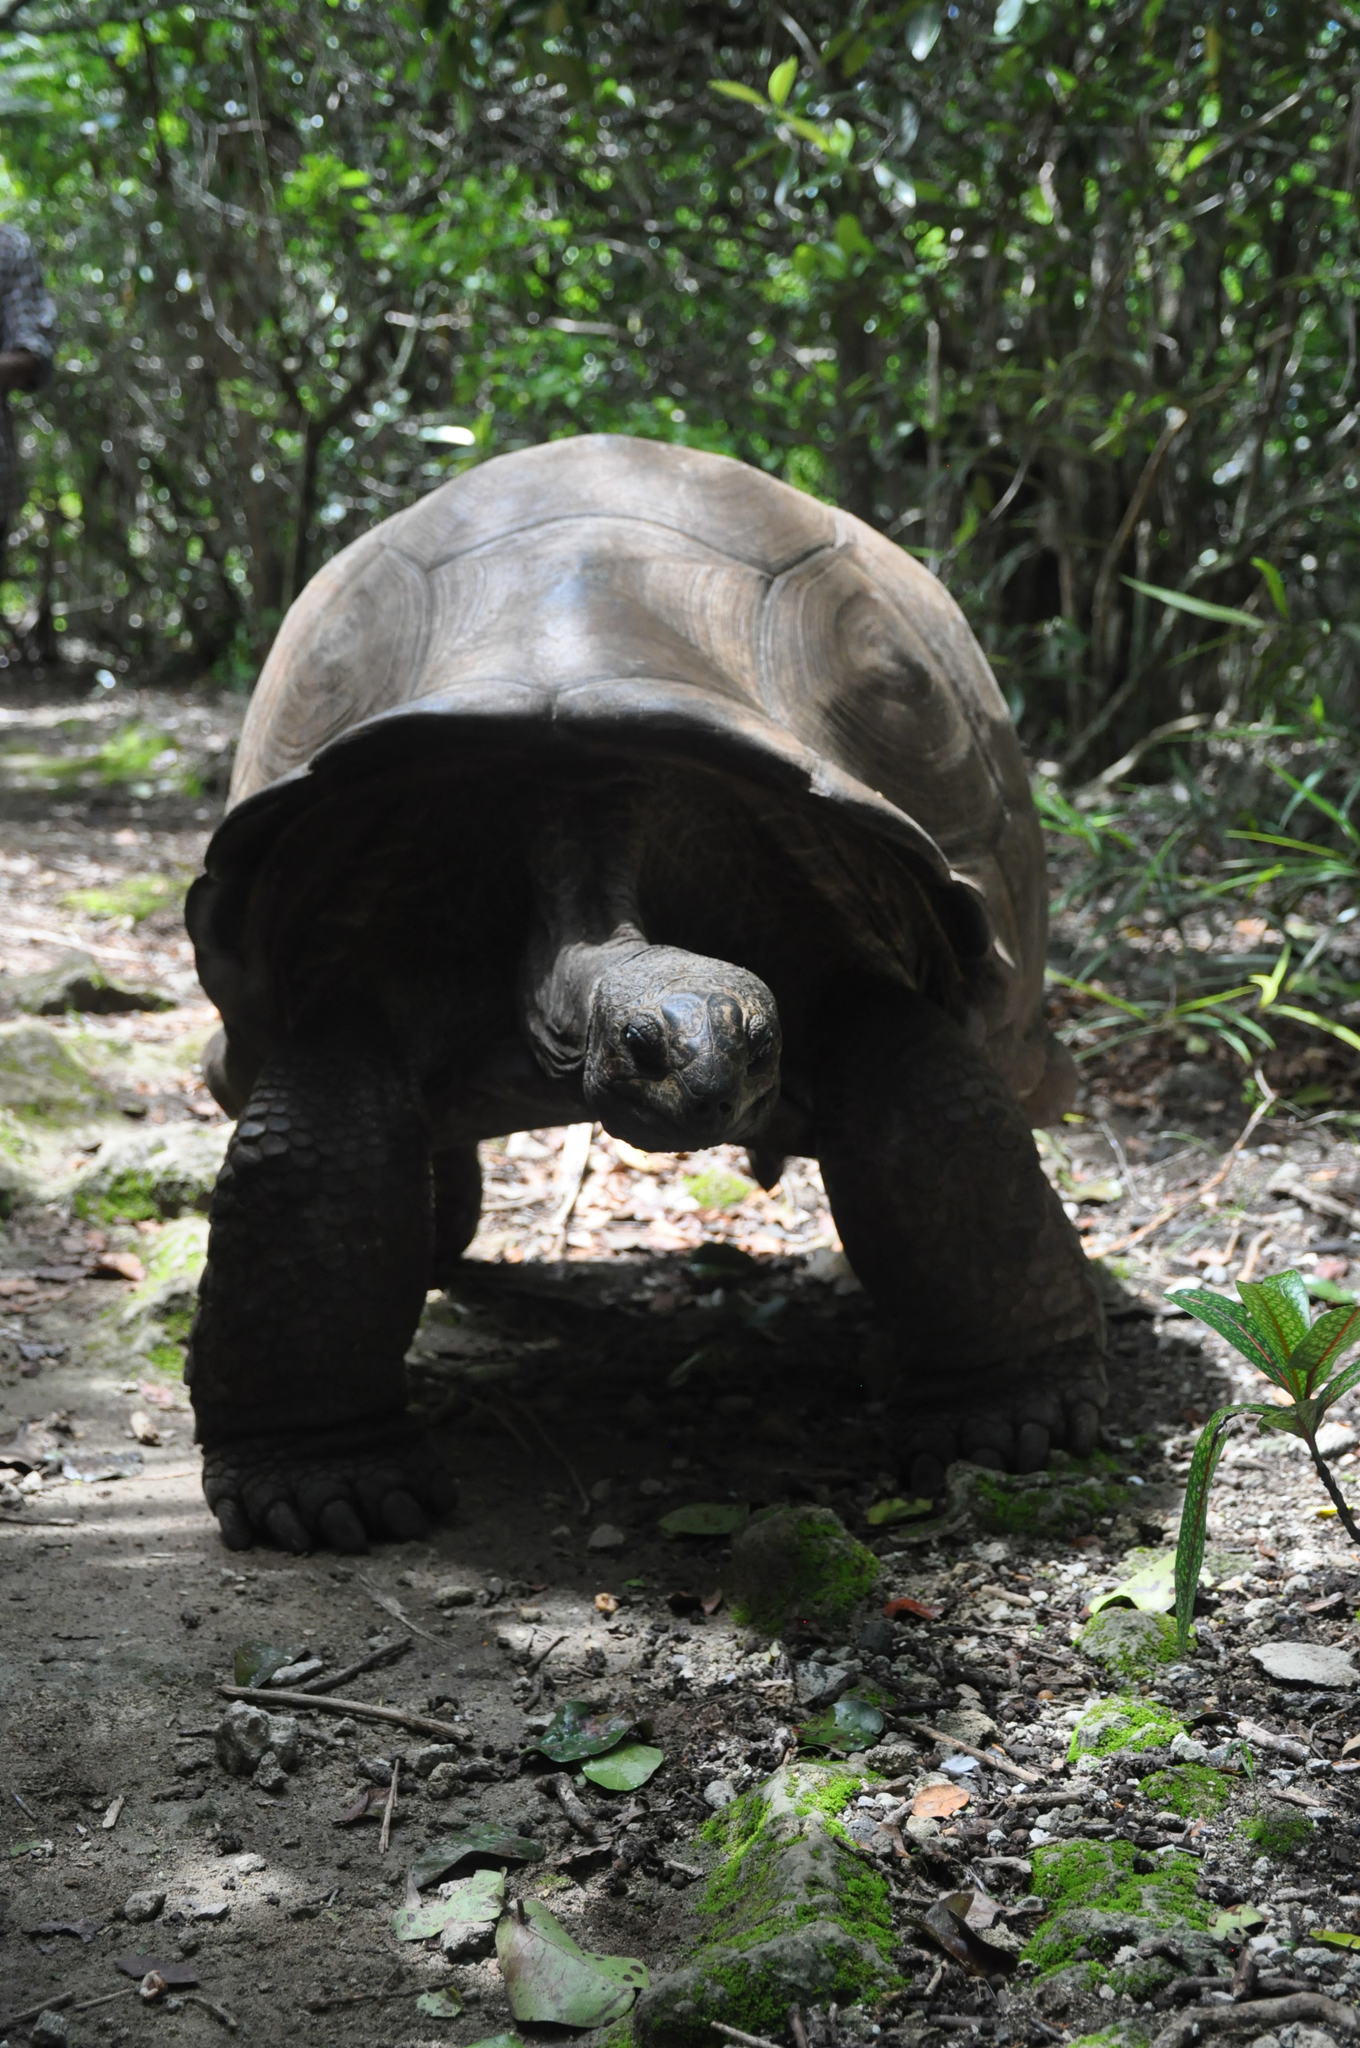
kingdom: Animalia
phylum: Chordata
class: Testudines
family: Testudinidae
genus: Aldabrachelys
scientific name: Aldabrachelys gigantea
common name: Aldabra giant tortoise
